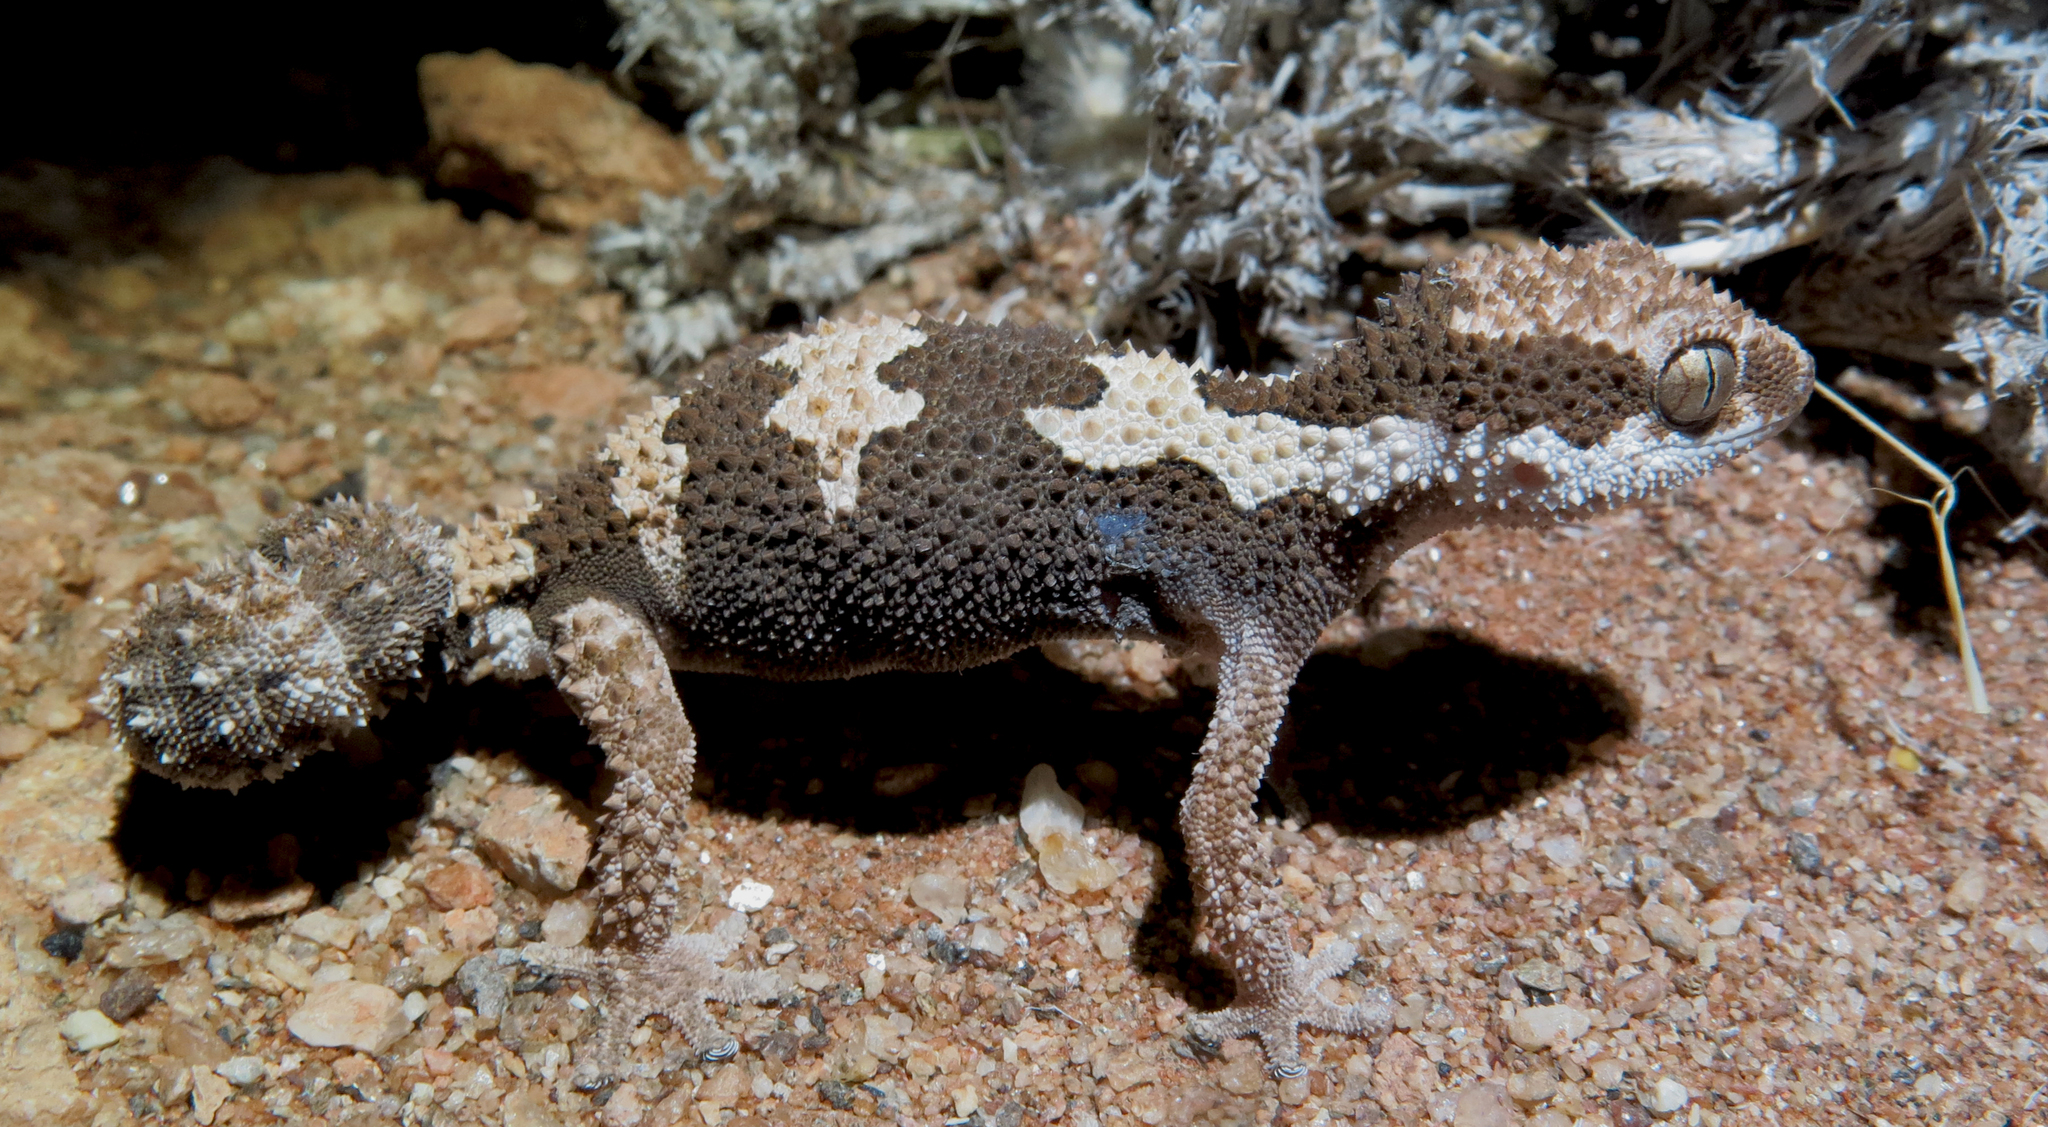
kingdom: Animalia
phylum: Chordata
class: Squamata
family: Gekkonidae
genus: Pachydactylus
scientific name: Pachydactylus rugosus
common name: Common rough gecko
